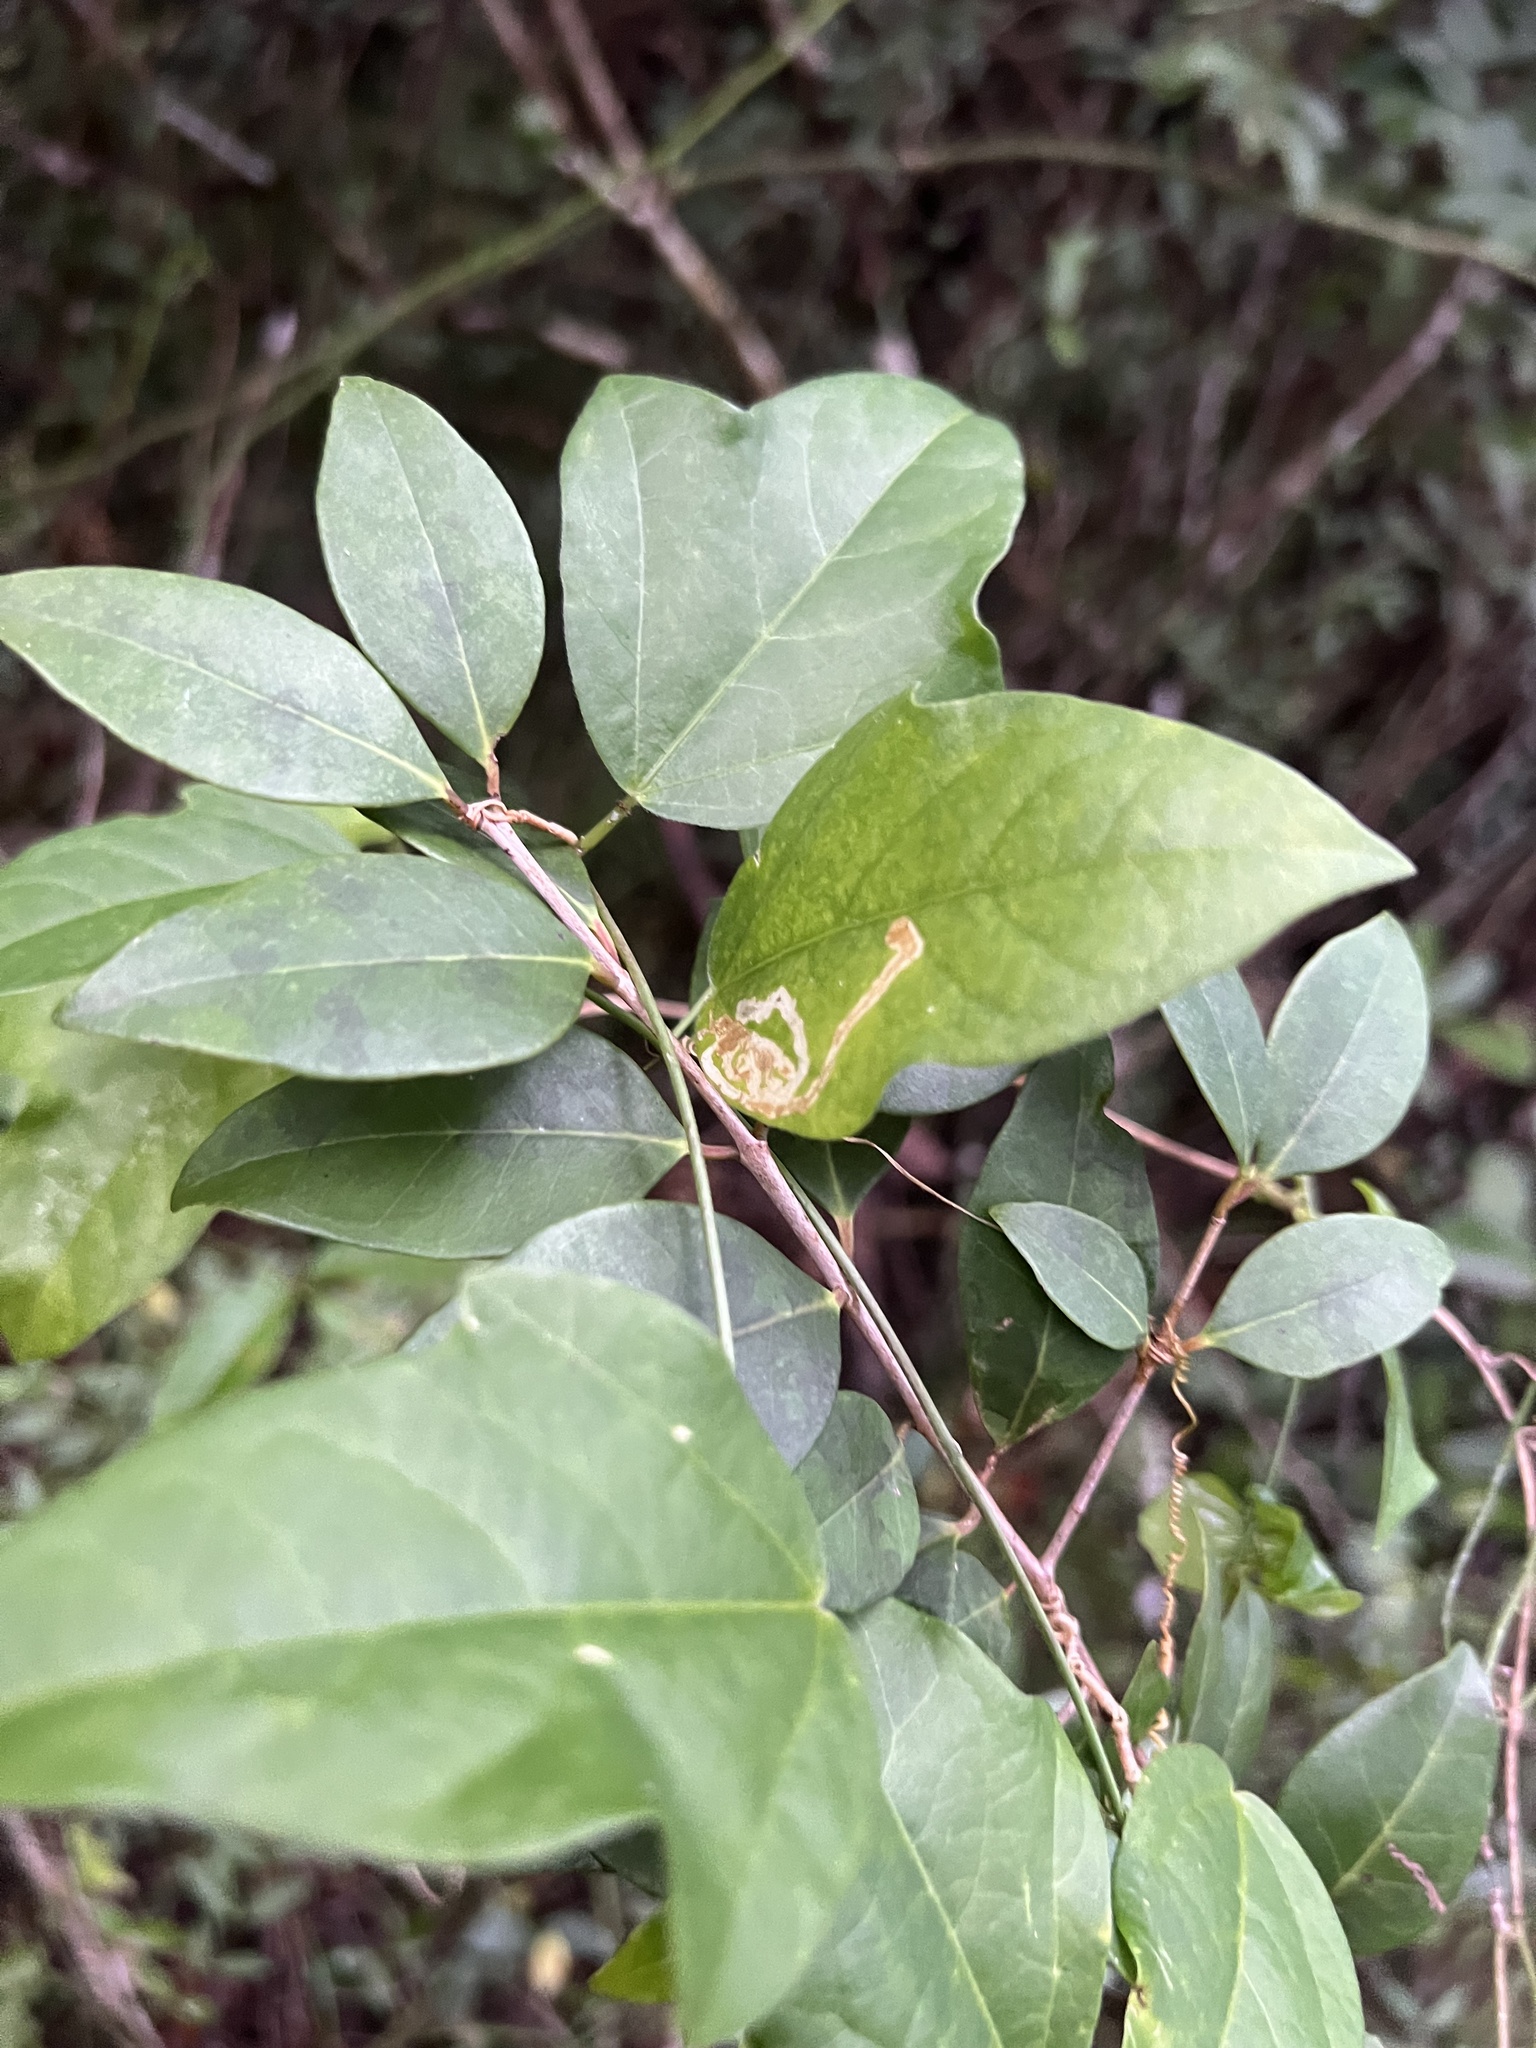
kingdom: Plantae
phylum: Tracheophyta
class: Magnoliopsida
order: Malpighiales
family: Passifloraceae
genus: Passiflora
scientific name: Passiflora pallida
